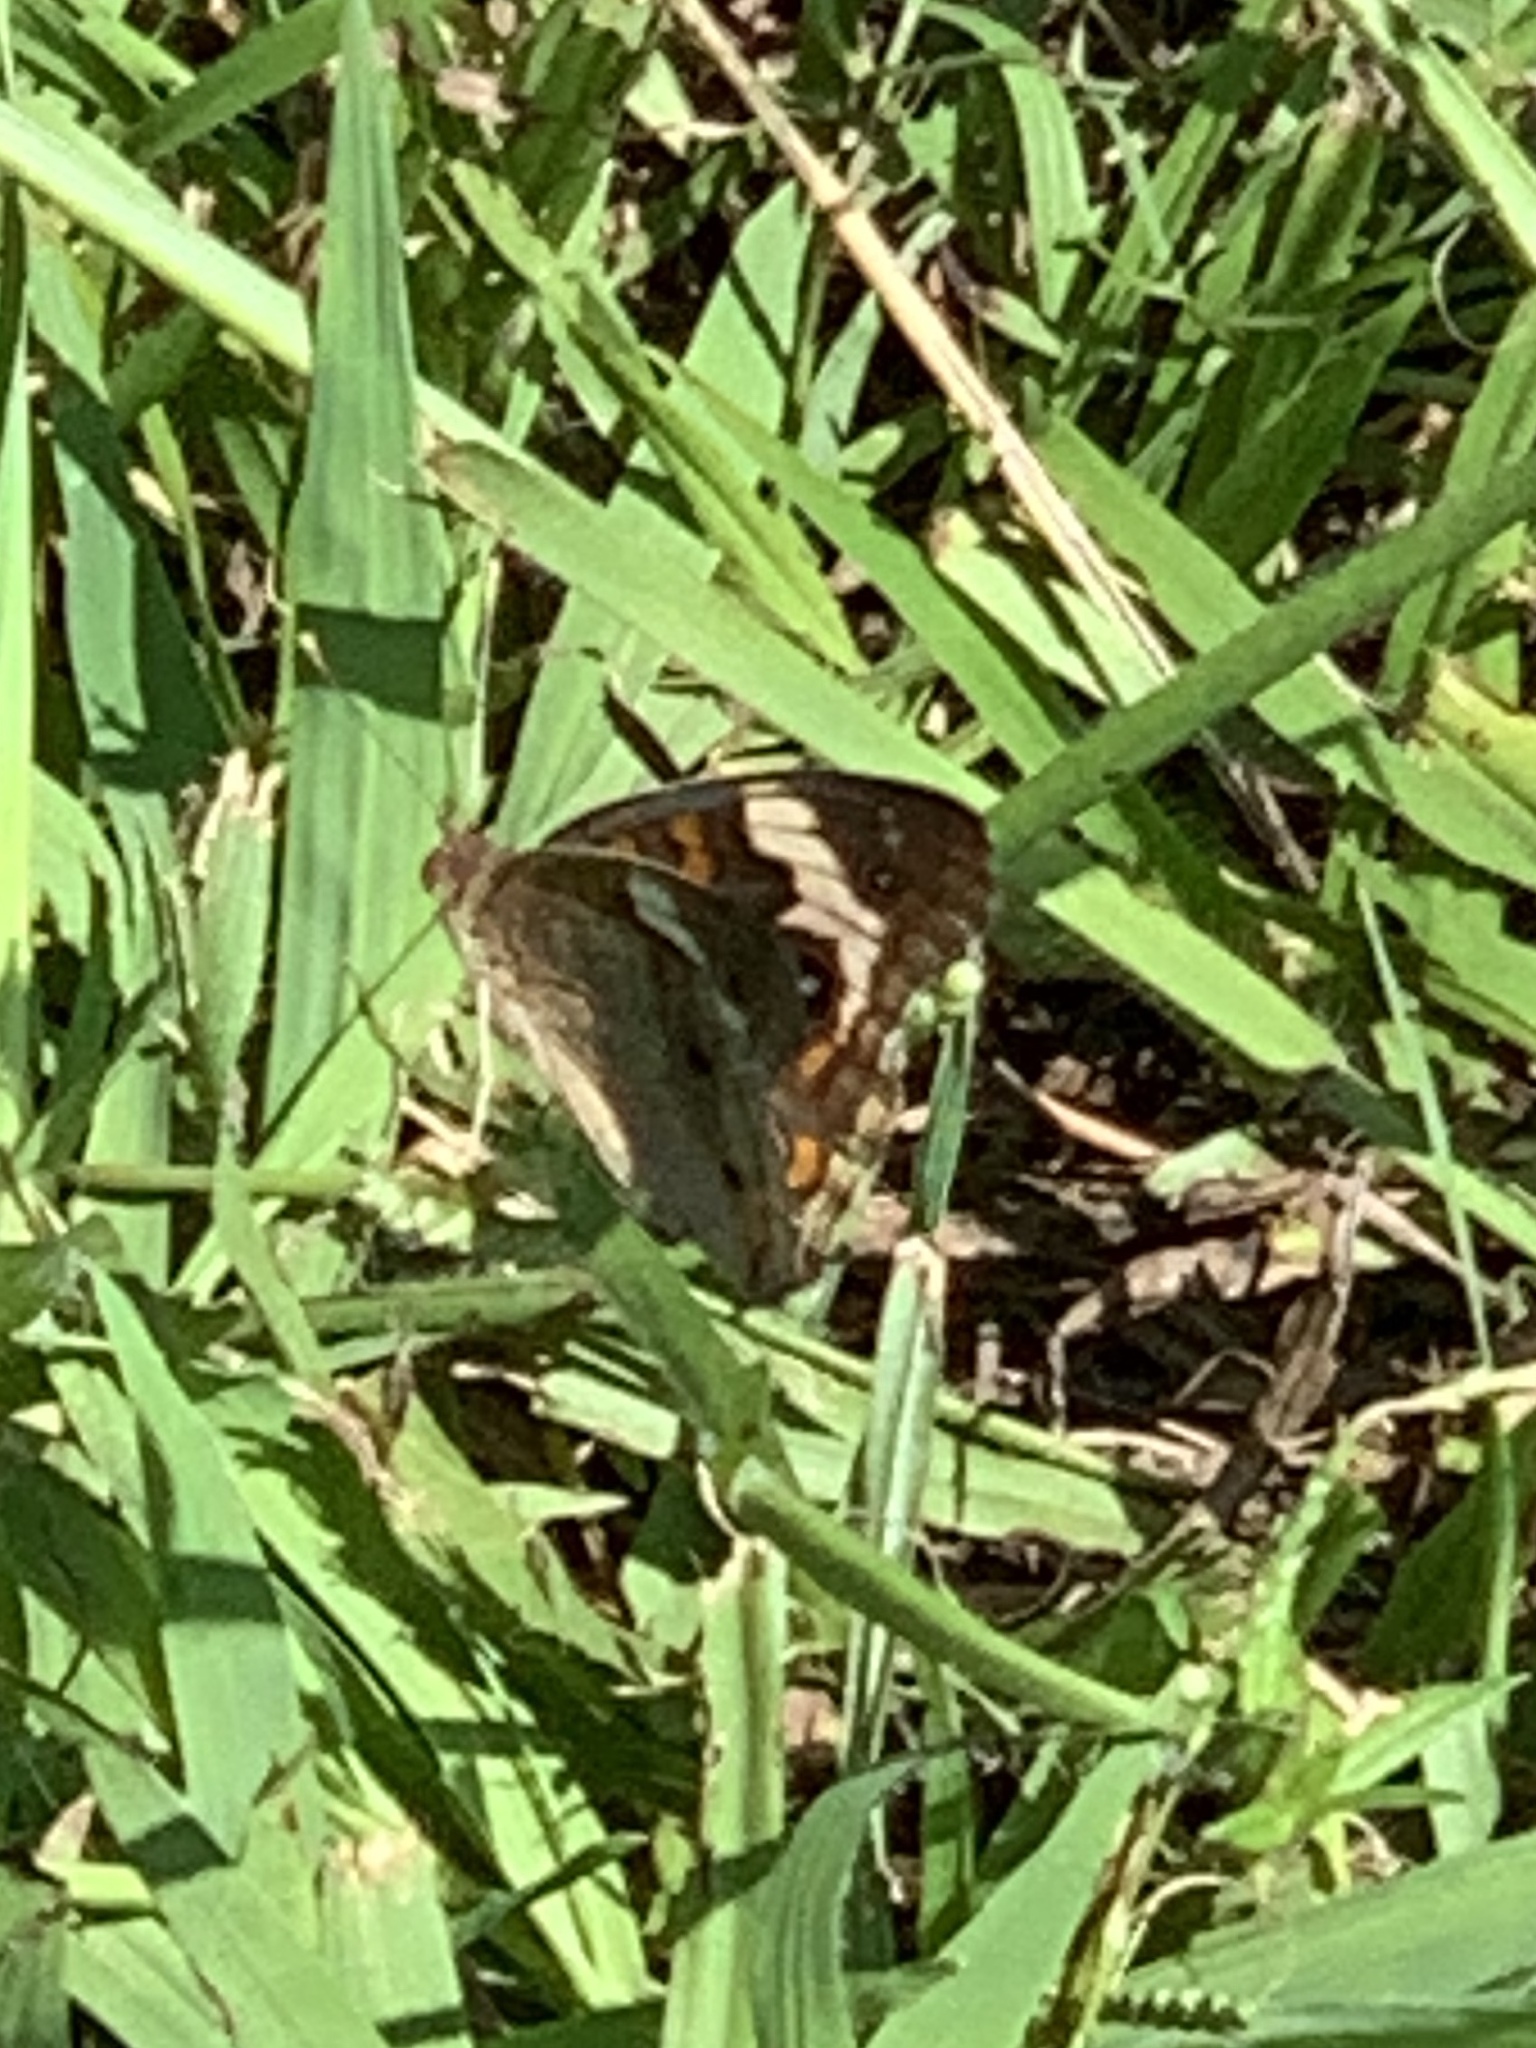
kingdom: Animalia
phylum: Arthropoda
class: Insecta
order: Lepidoptera
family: Nymphalidae
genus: Junonia
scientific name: Junonia coenia
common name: Common buckeye
